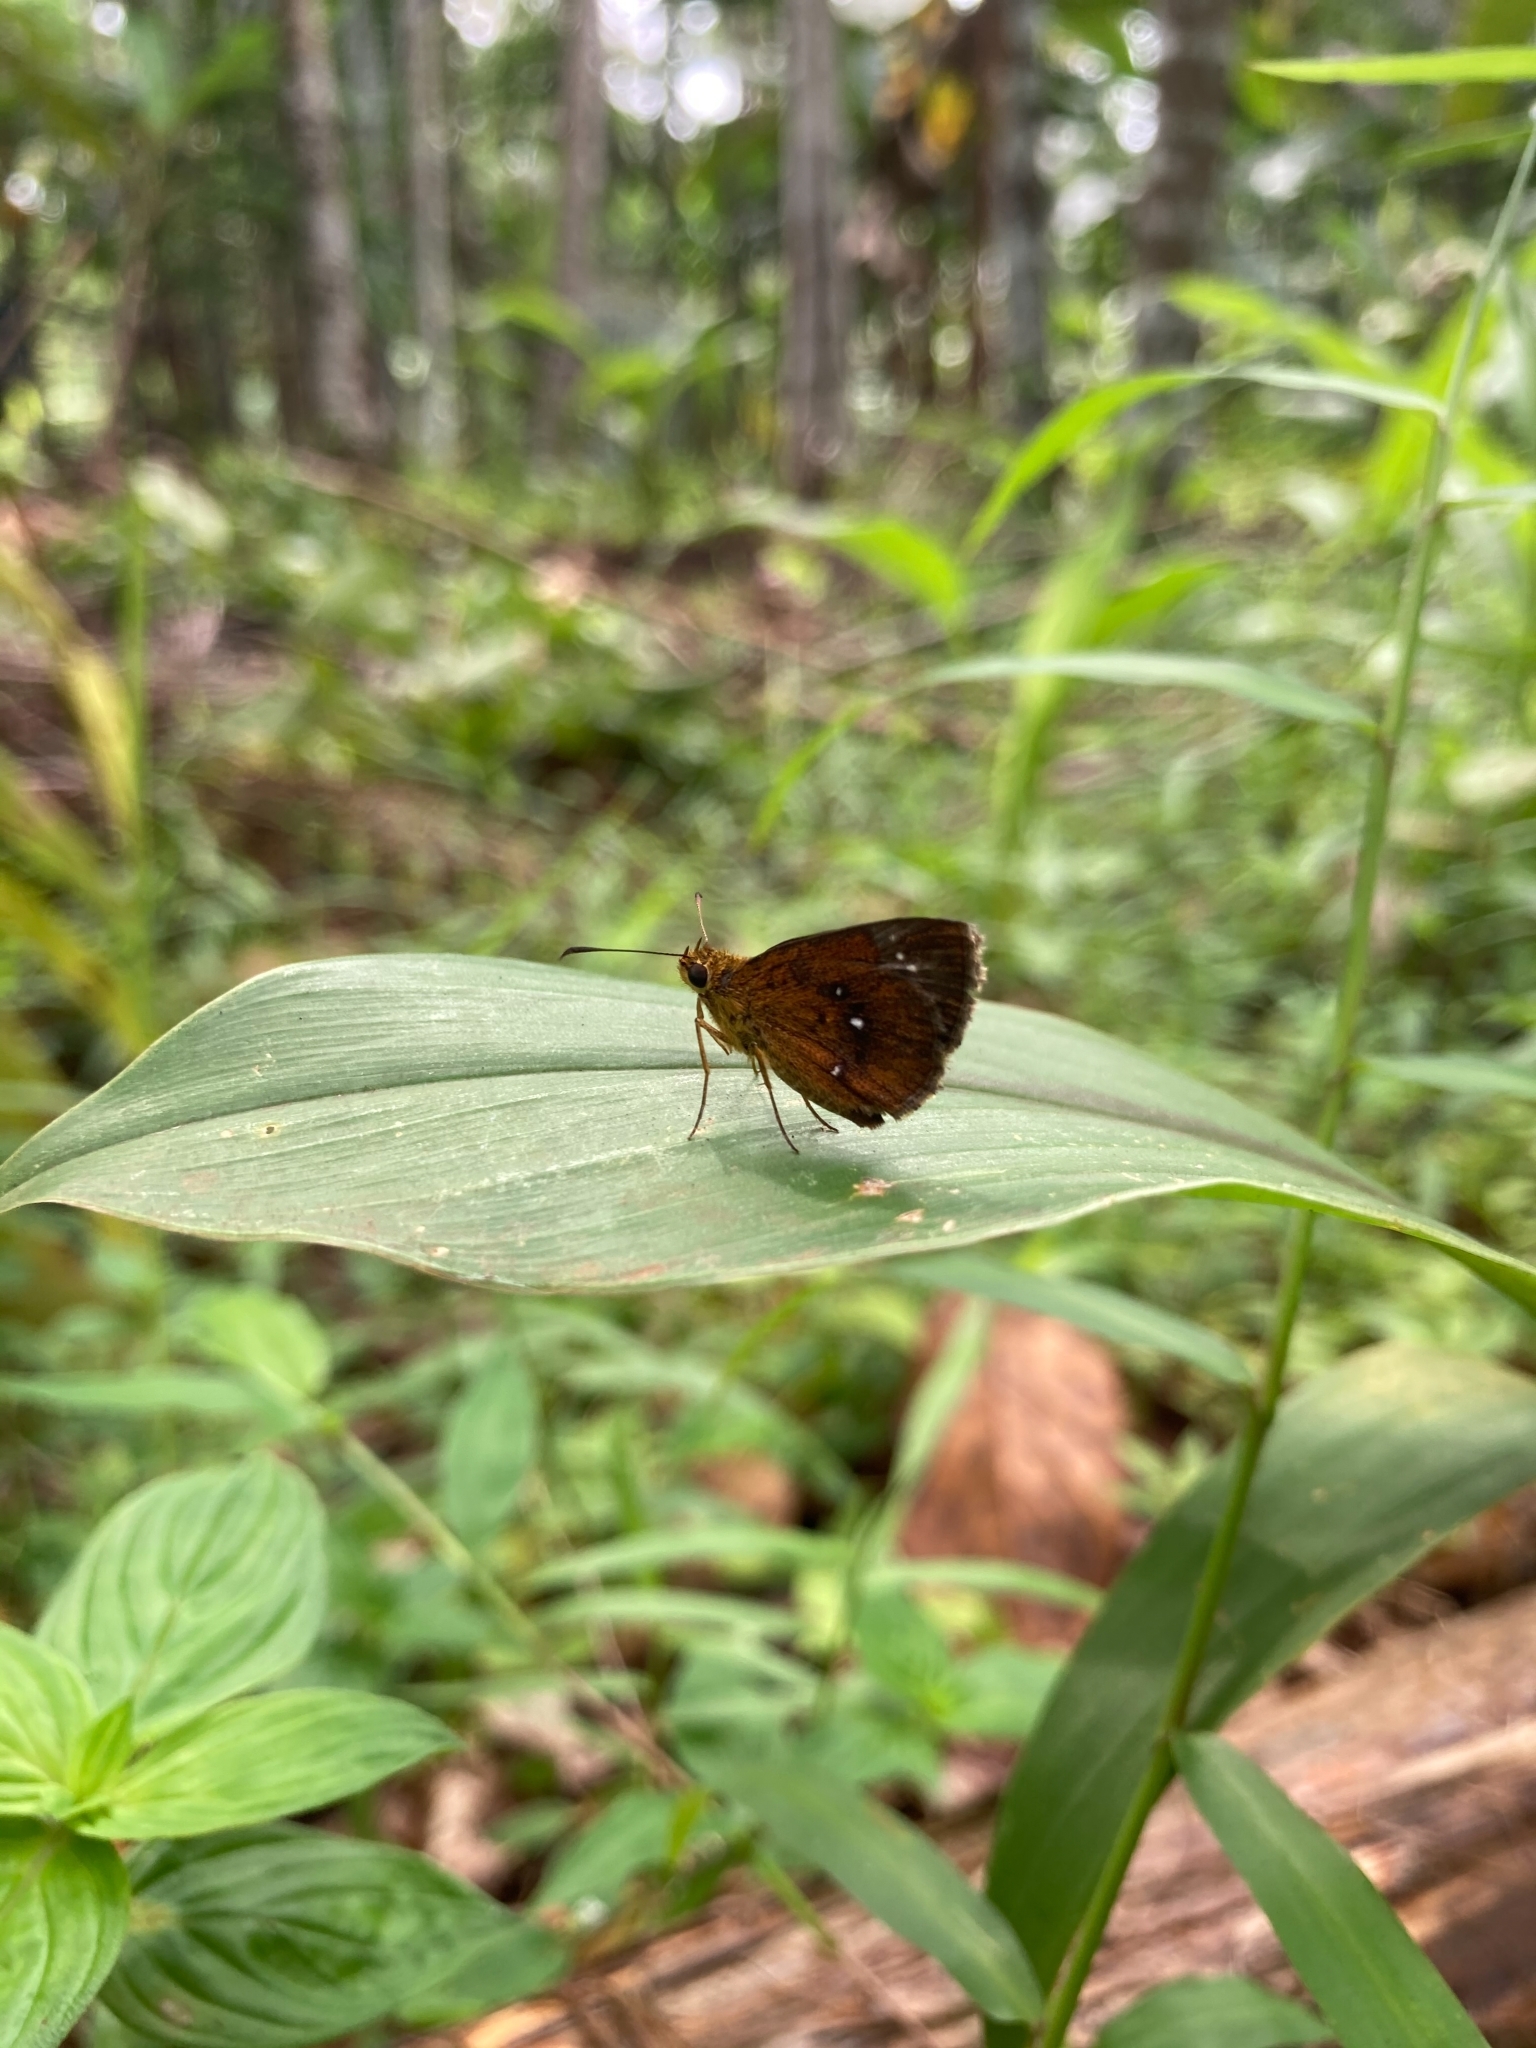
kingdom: Animalia
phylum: Arthropoda
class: Insecta
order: Lepidoptera
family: Hesperiidae
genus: Iambrix
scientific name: Iambrix salsala
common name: Chestnut bob
